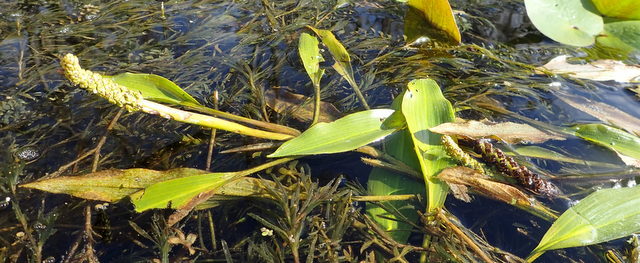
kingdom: Plantae
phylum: Tracheophyta
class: Liliopsida
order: Alismatales
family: Potamogetonaceae
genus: Potamogeton
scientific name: Potamogeton nodosus
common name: Loddon pondweed
